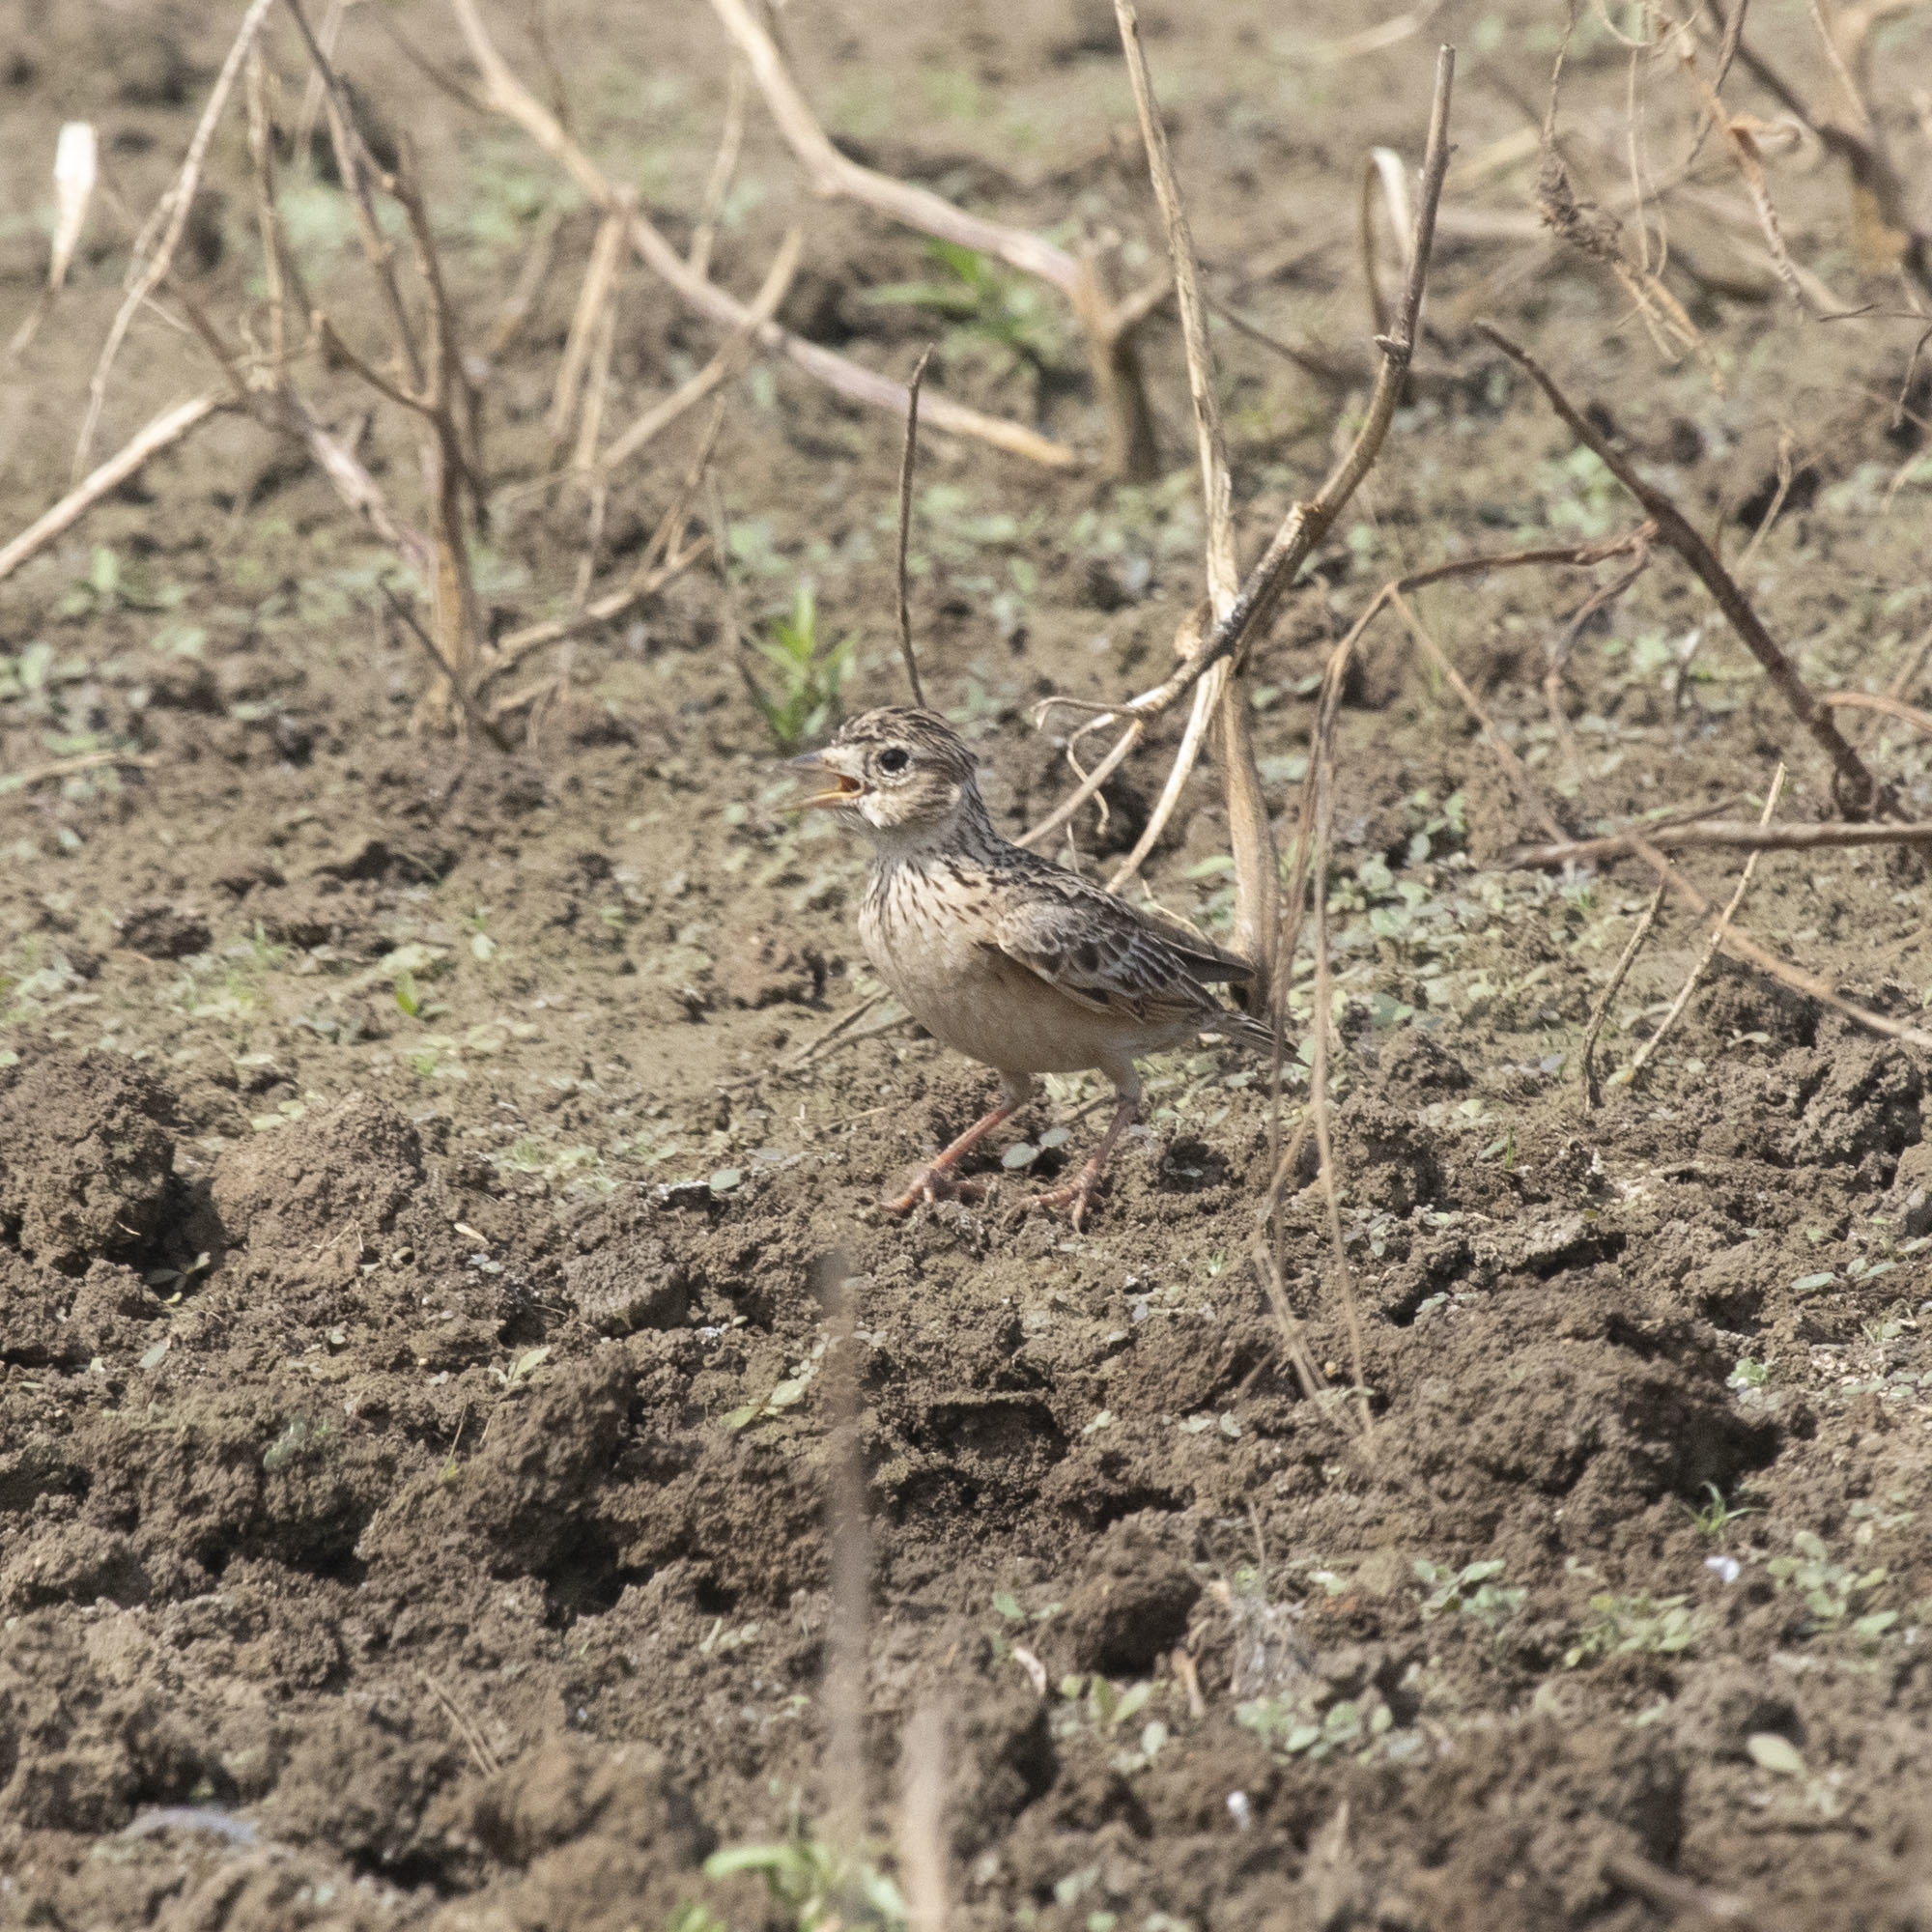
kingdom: Animalia
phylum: Chordata
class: Aves
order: Passeriformes
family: Alaudidae
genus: Alauda
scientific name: Alauda gulgula
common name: Oriental skylark
